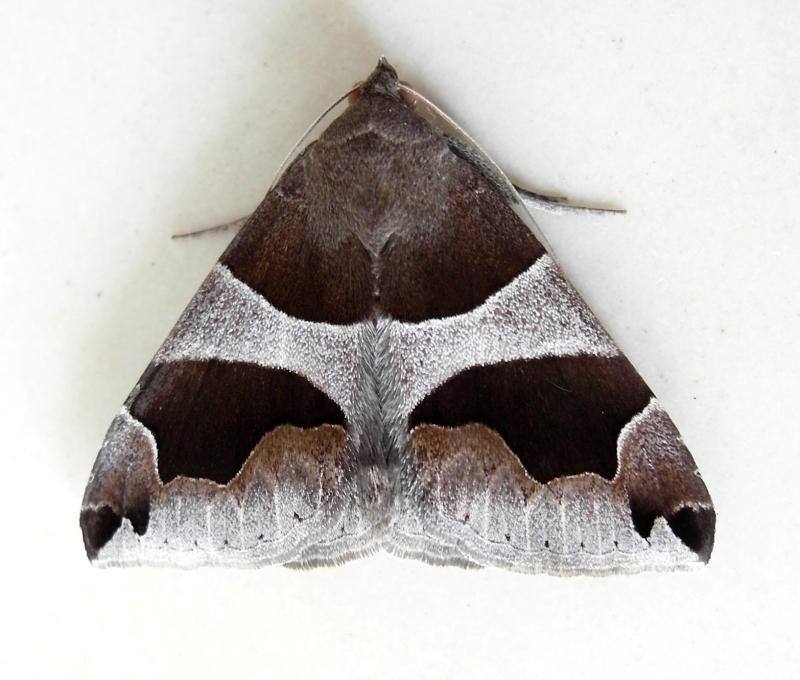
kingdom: Animalia
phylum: Arthropoda
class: Insecta
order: Lepidoptera
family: Erebidae
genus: Dysgonia
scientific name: Dysgonia algira
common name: Passenger
